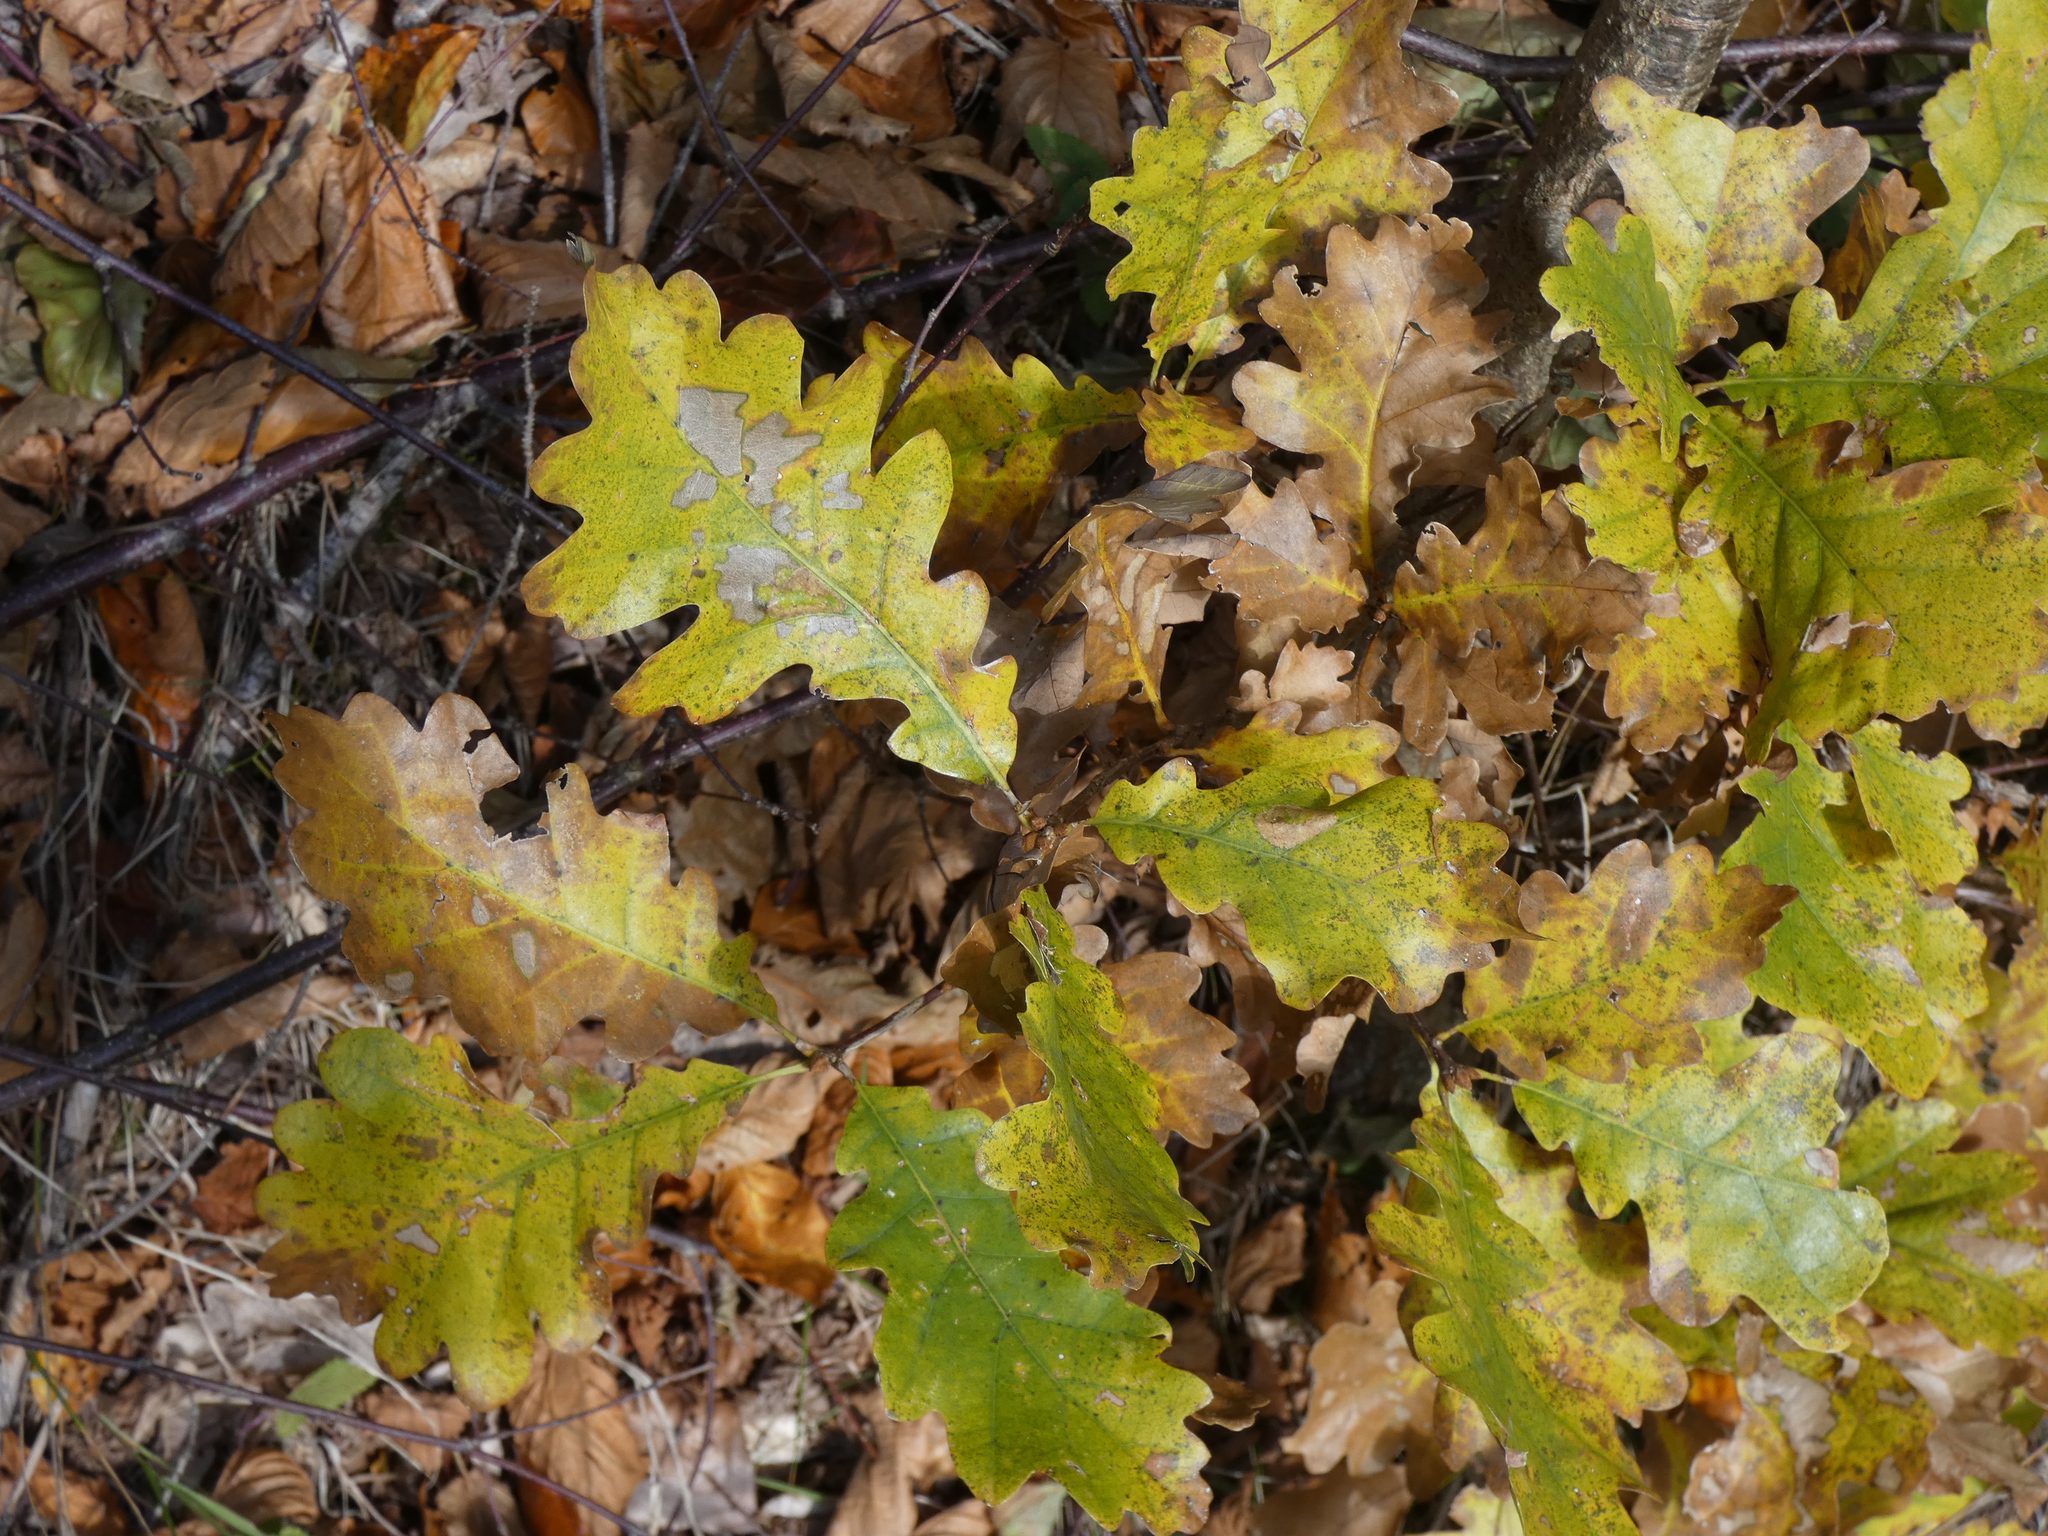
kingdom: Plantae
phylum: Tracheophyta
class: Magnoliopsida
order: Fagales
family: Fagaceae
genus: Quercus
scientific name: Quercus petraea
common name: Sessile oak
